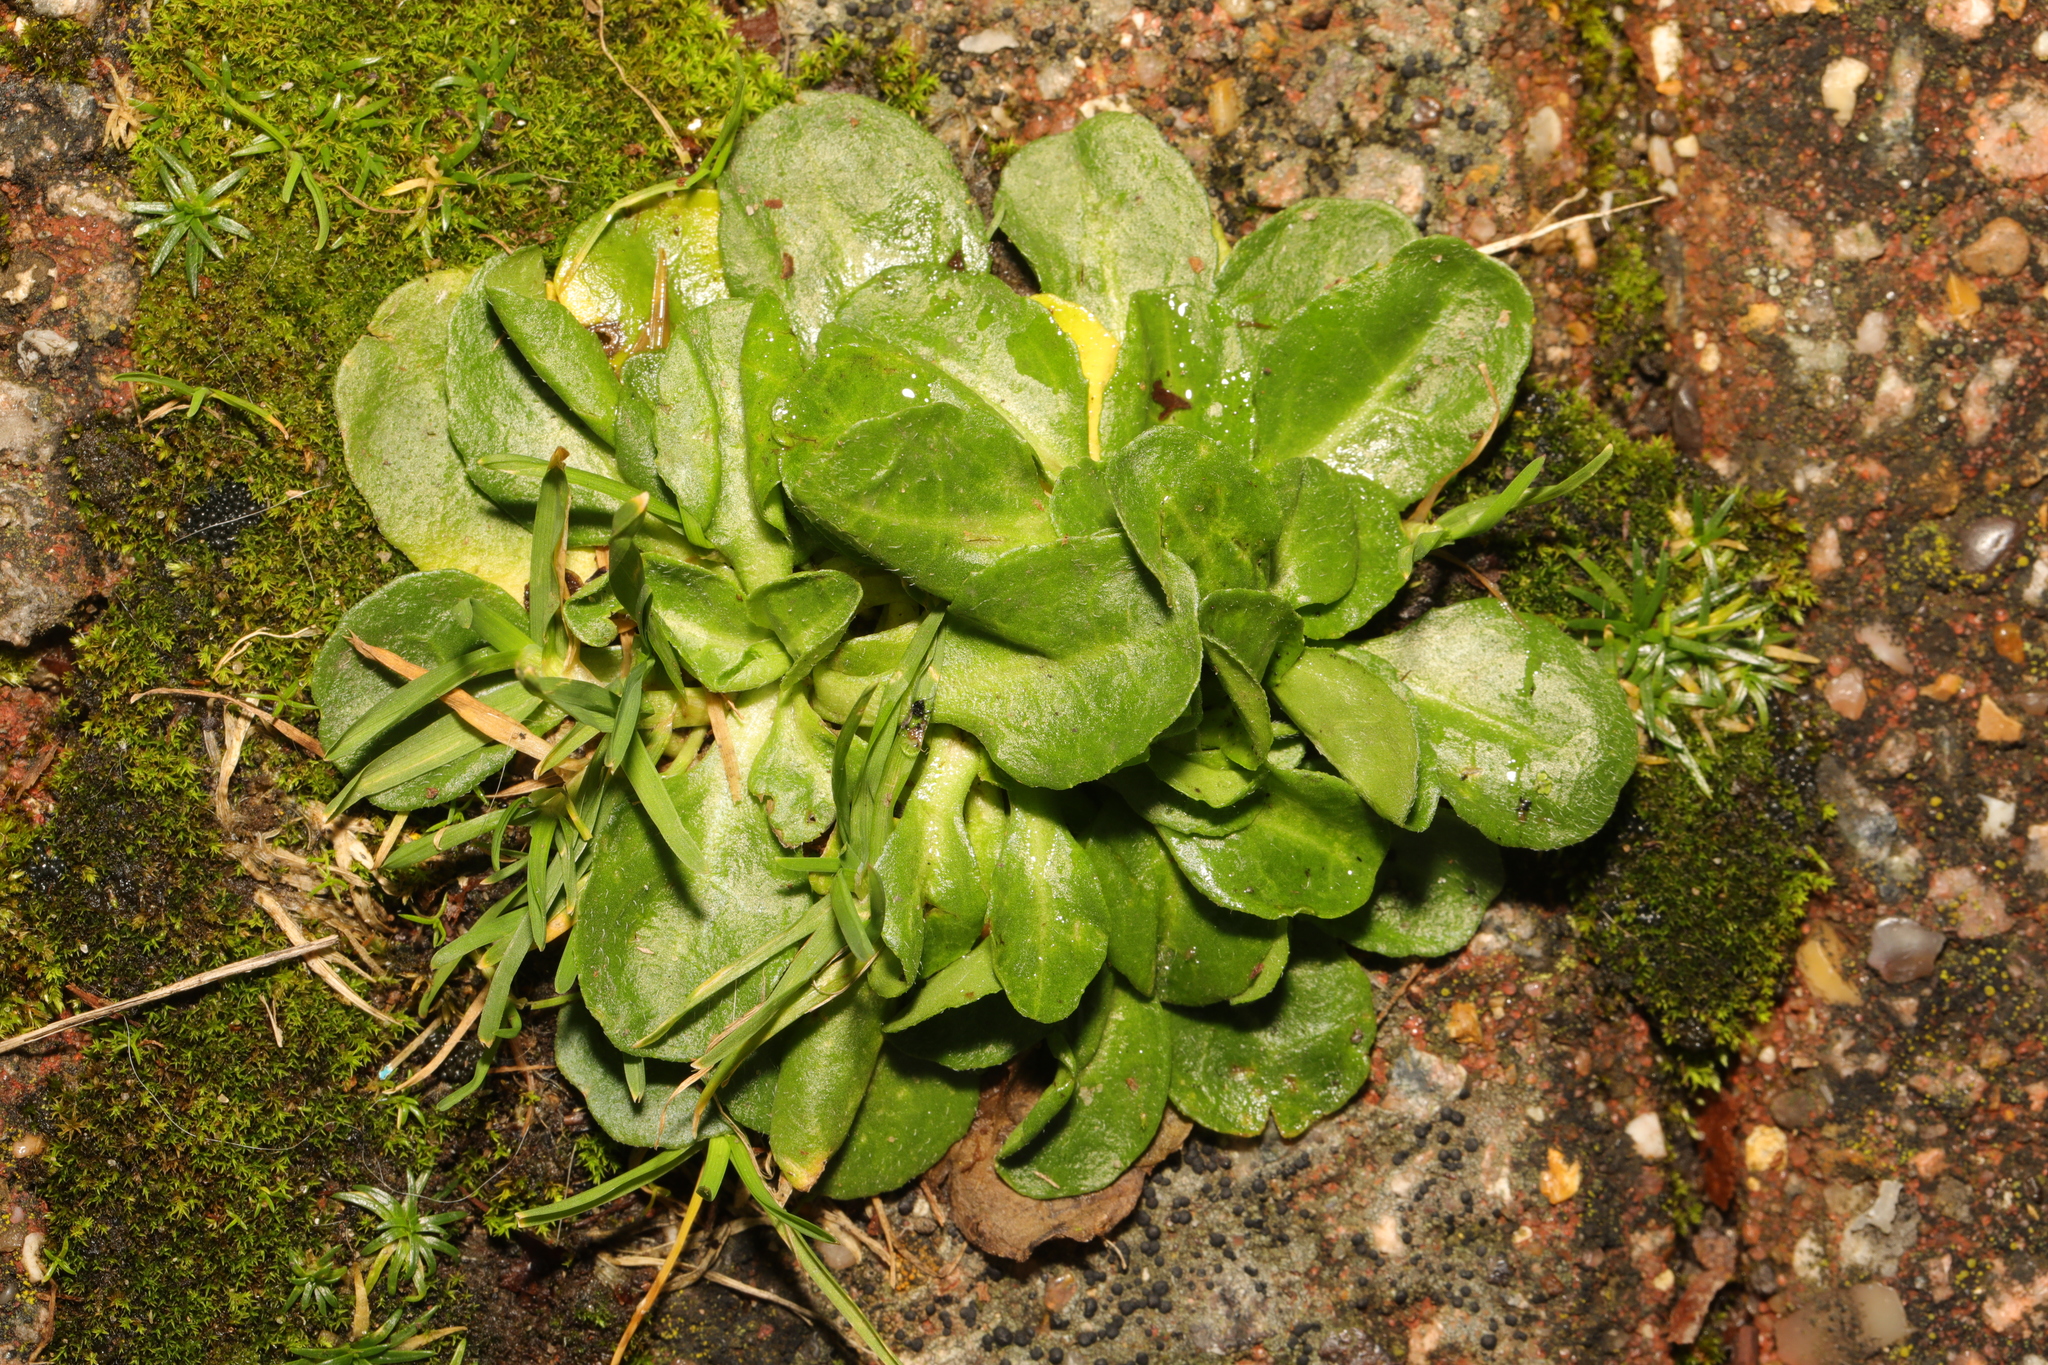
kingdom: Plantae
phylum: Tracheophyta
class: Magnoliopsida
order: Asterales
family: Asteraceae
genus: Bellis
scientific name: Bellis perennis
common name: Lawndaisy
